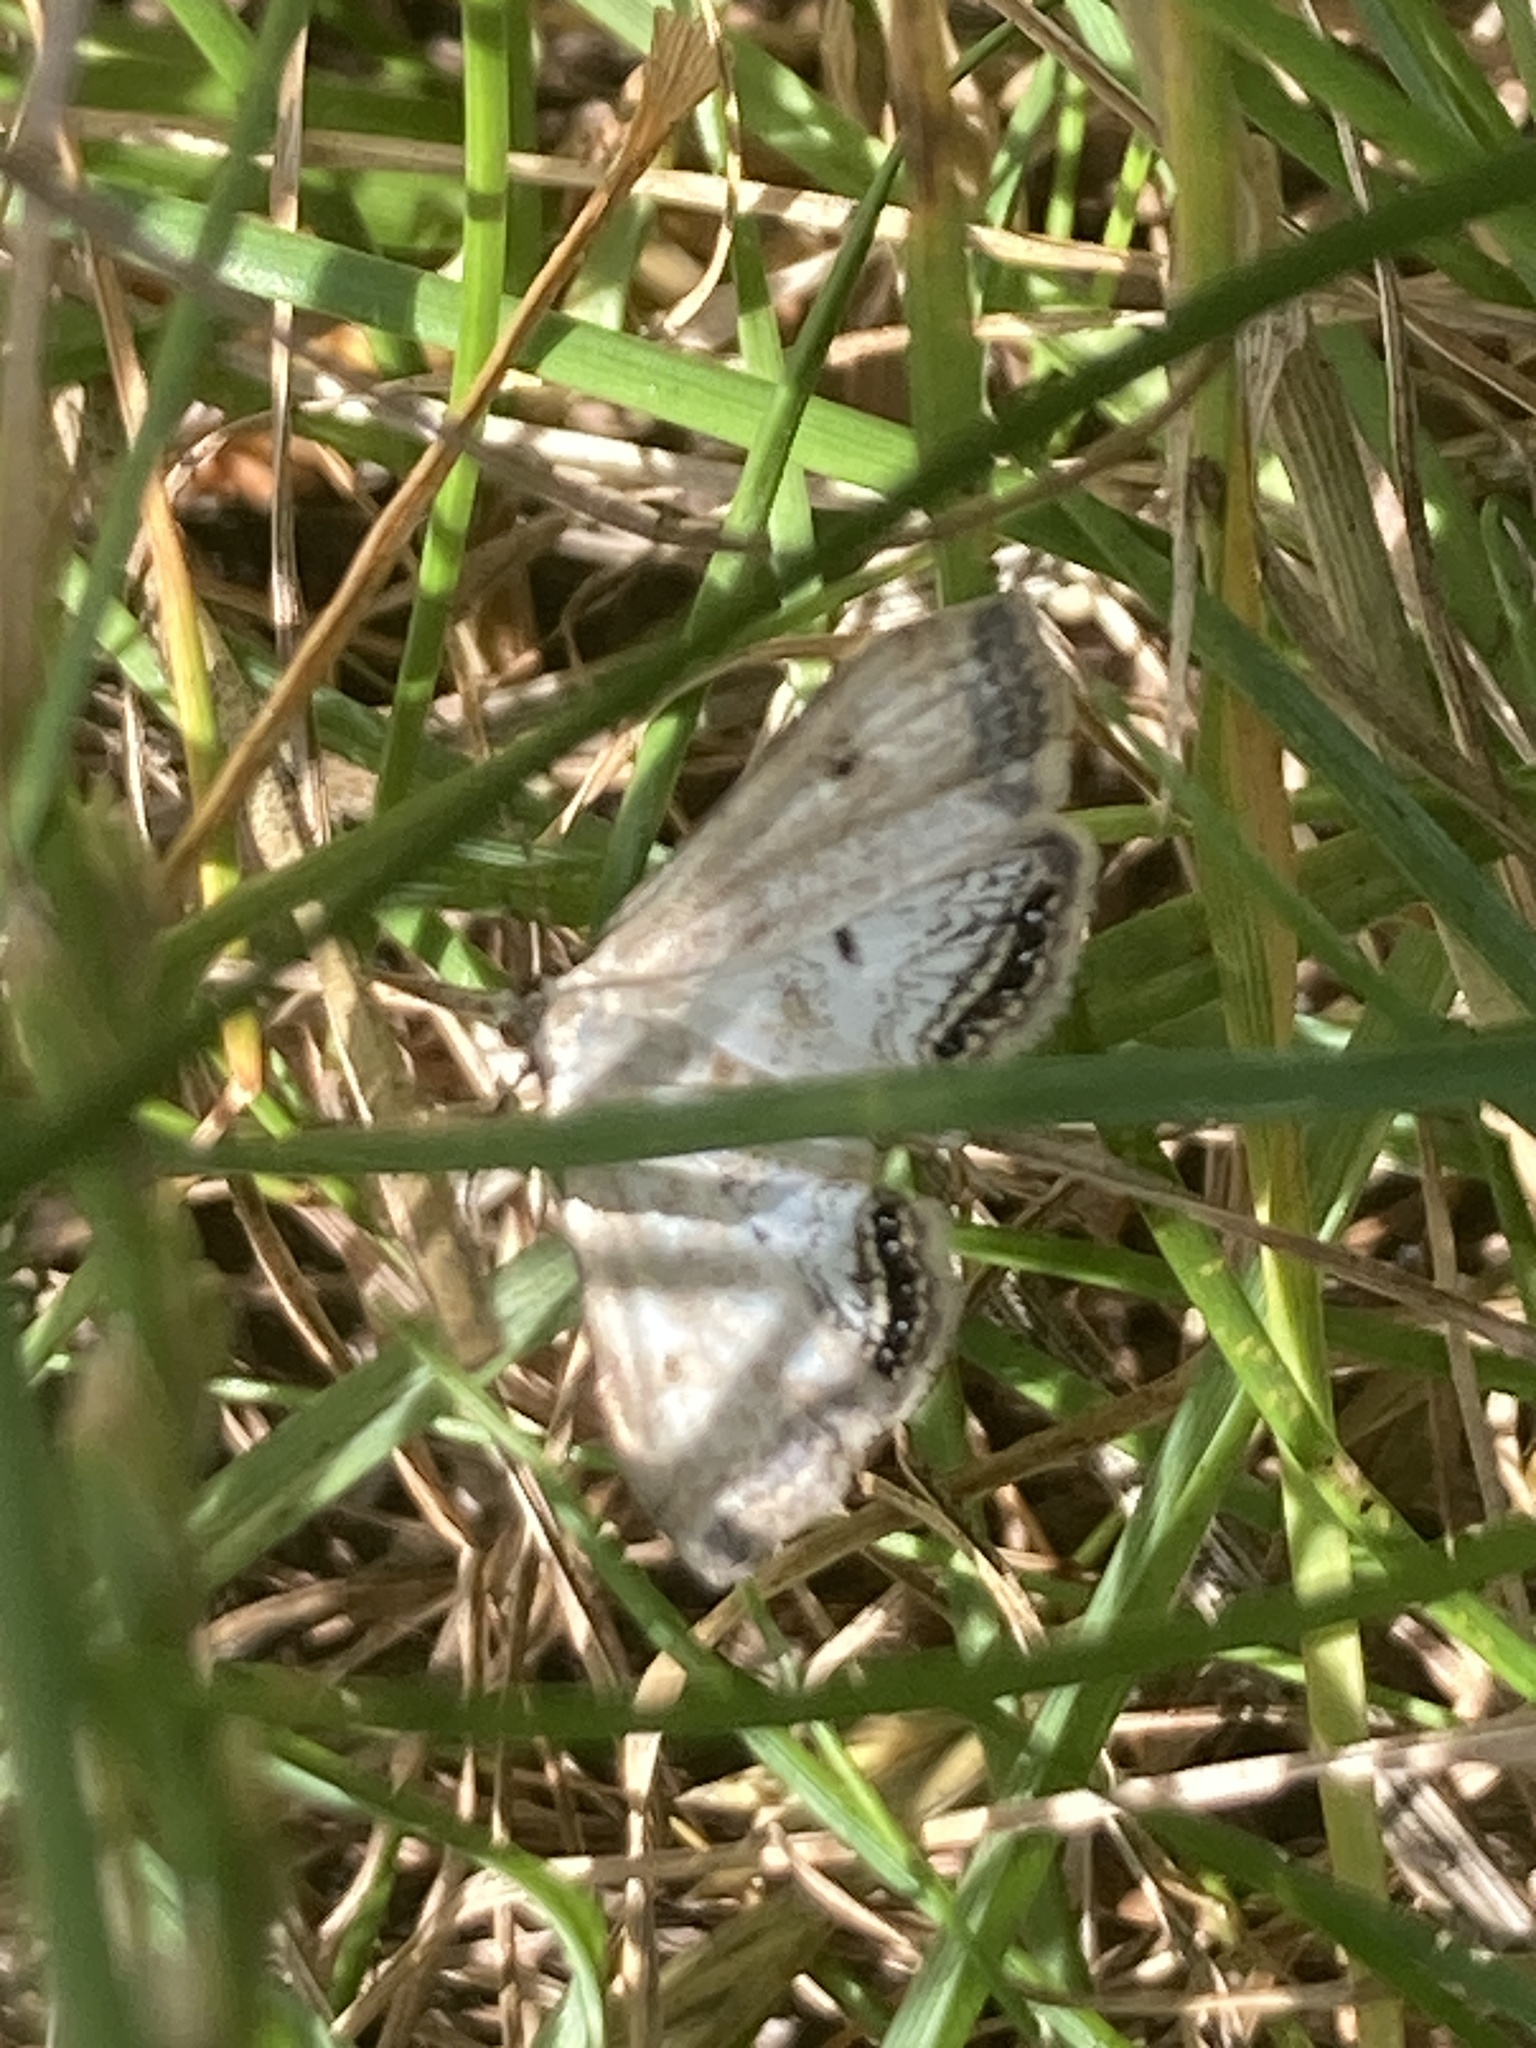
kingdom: Animalia
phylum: Arthropoda
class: Insecta
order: Lepidoptera
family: Crambidae
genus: Cataclysta
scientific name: Cataclysta lemnata
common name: Small china-mark
